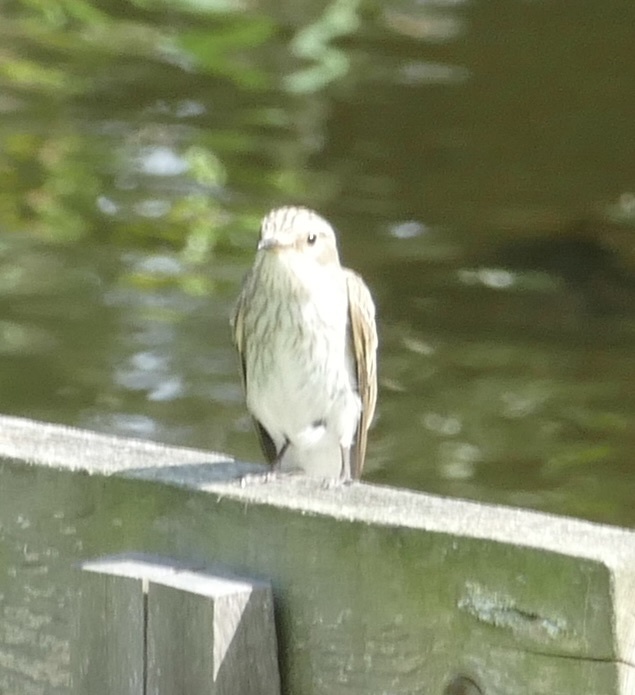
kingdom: Animalia
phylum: Chordata
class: Aves
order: Passeriformes
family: Muscicapidae
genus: Muscicapa
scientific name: Muscicapa striata
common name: Spotted flycatcher
